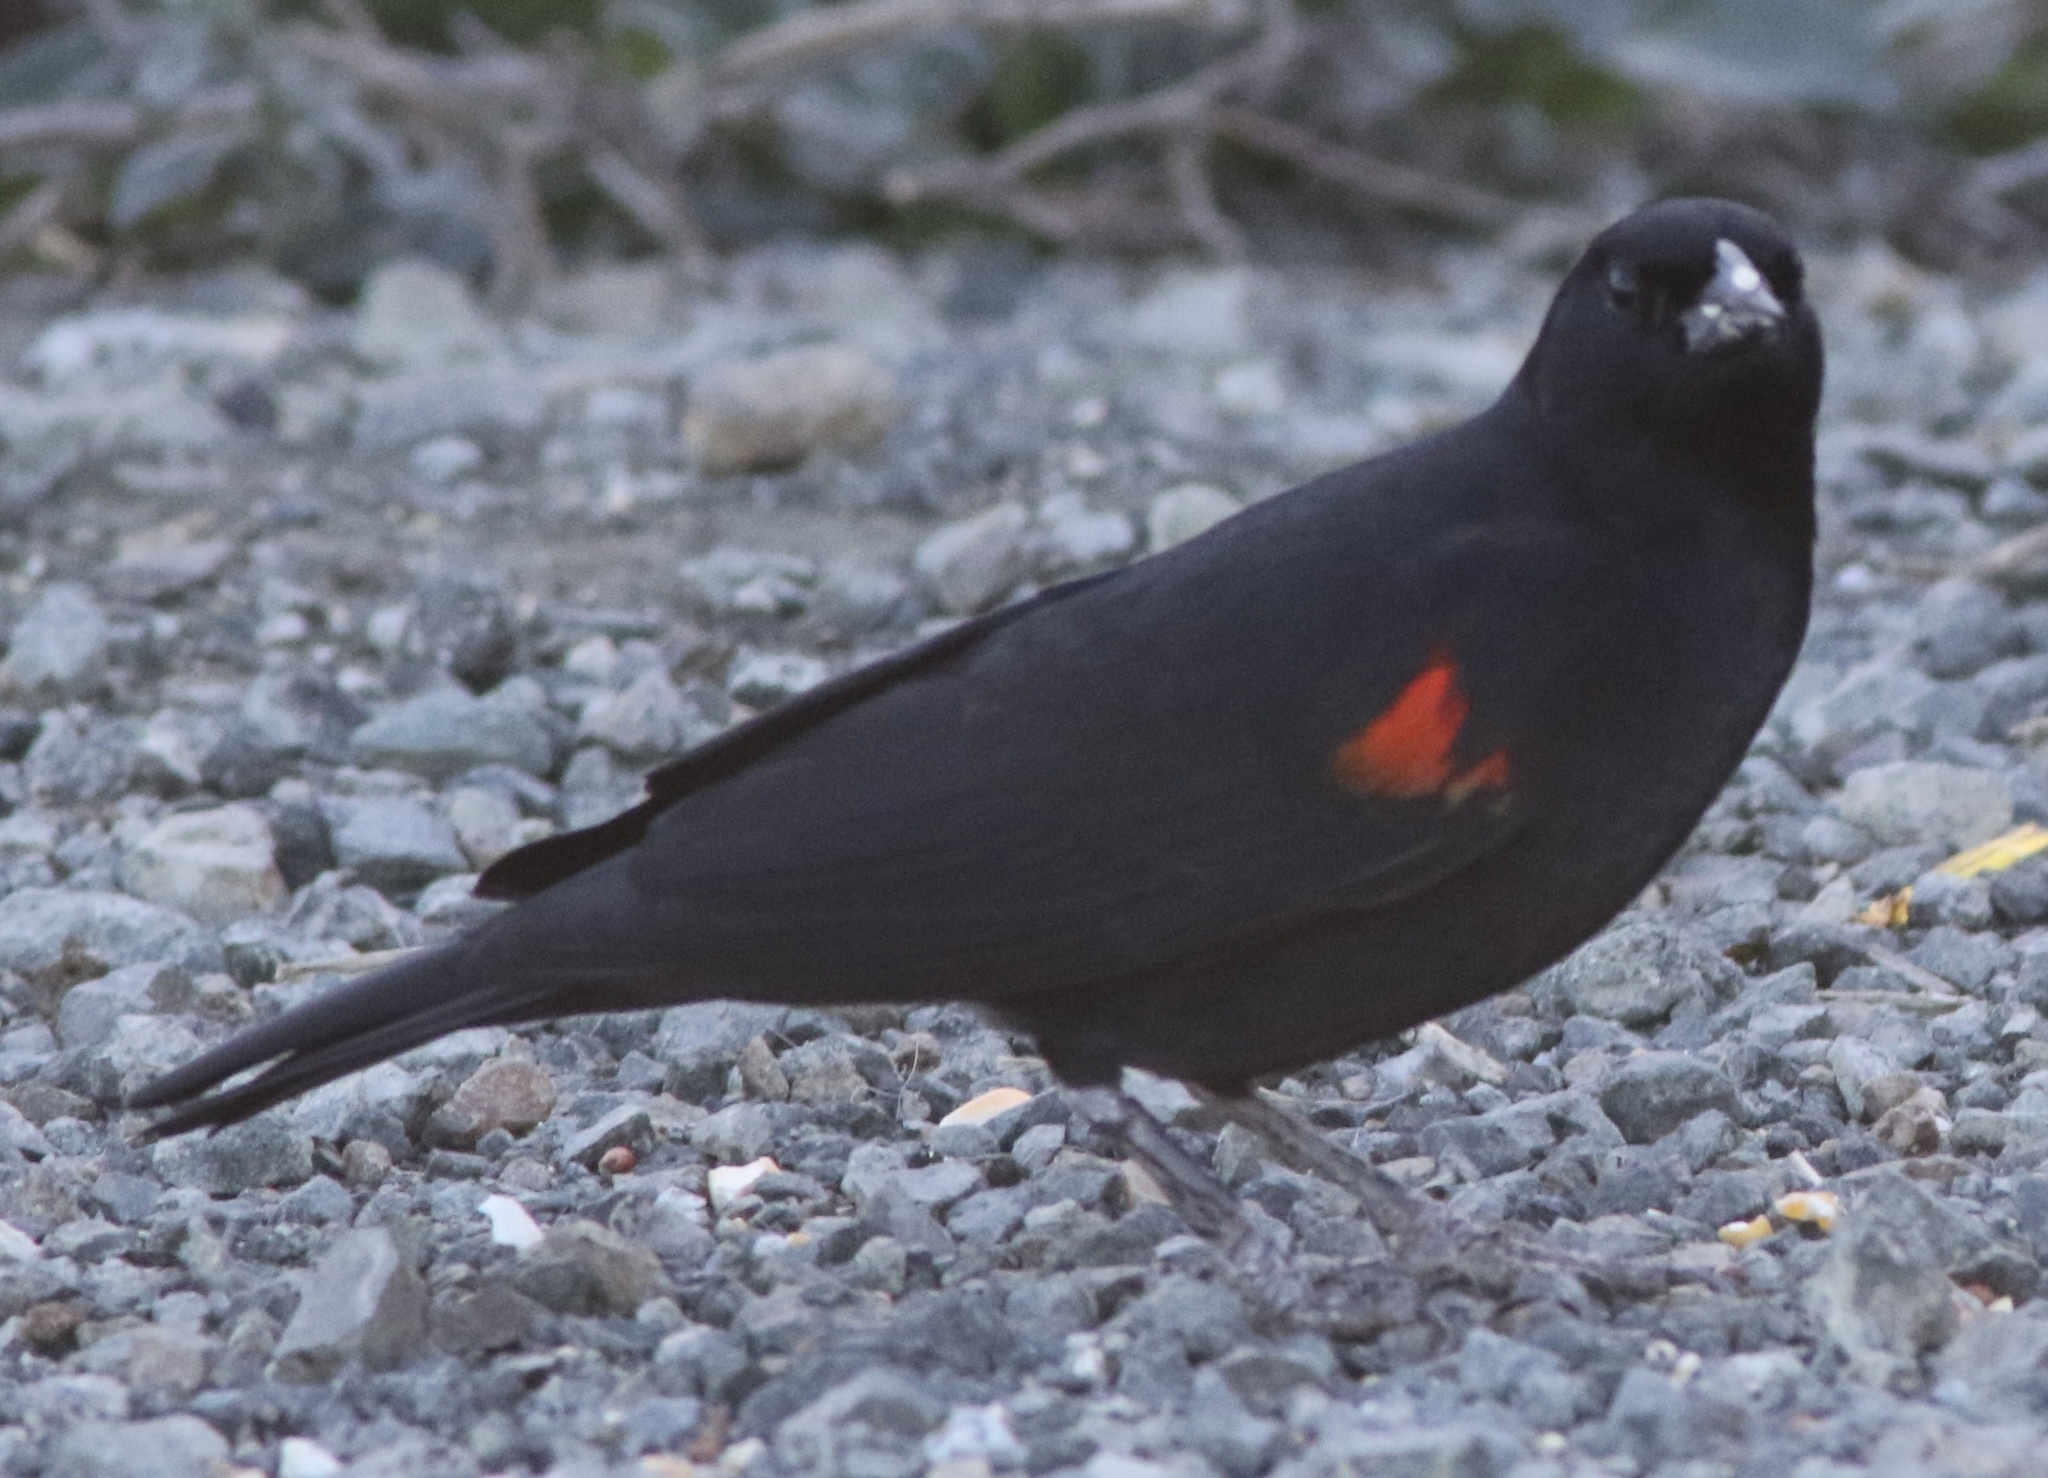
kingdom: Animalia
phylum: Chordata
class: Aves
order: Passeriformes
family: Icteridae
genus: Agelaius
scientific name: Agelaius phoeniceus
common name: Red-winged blackbird
